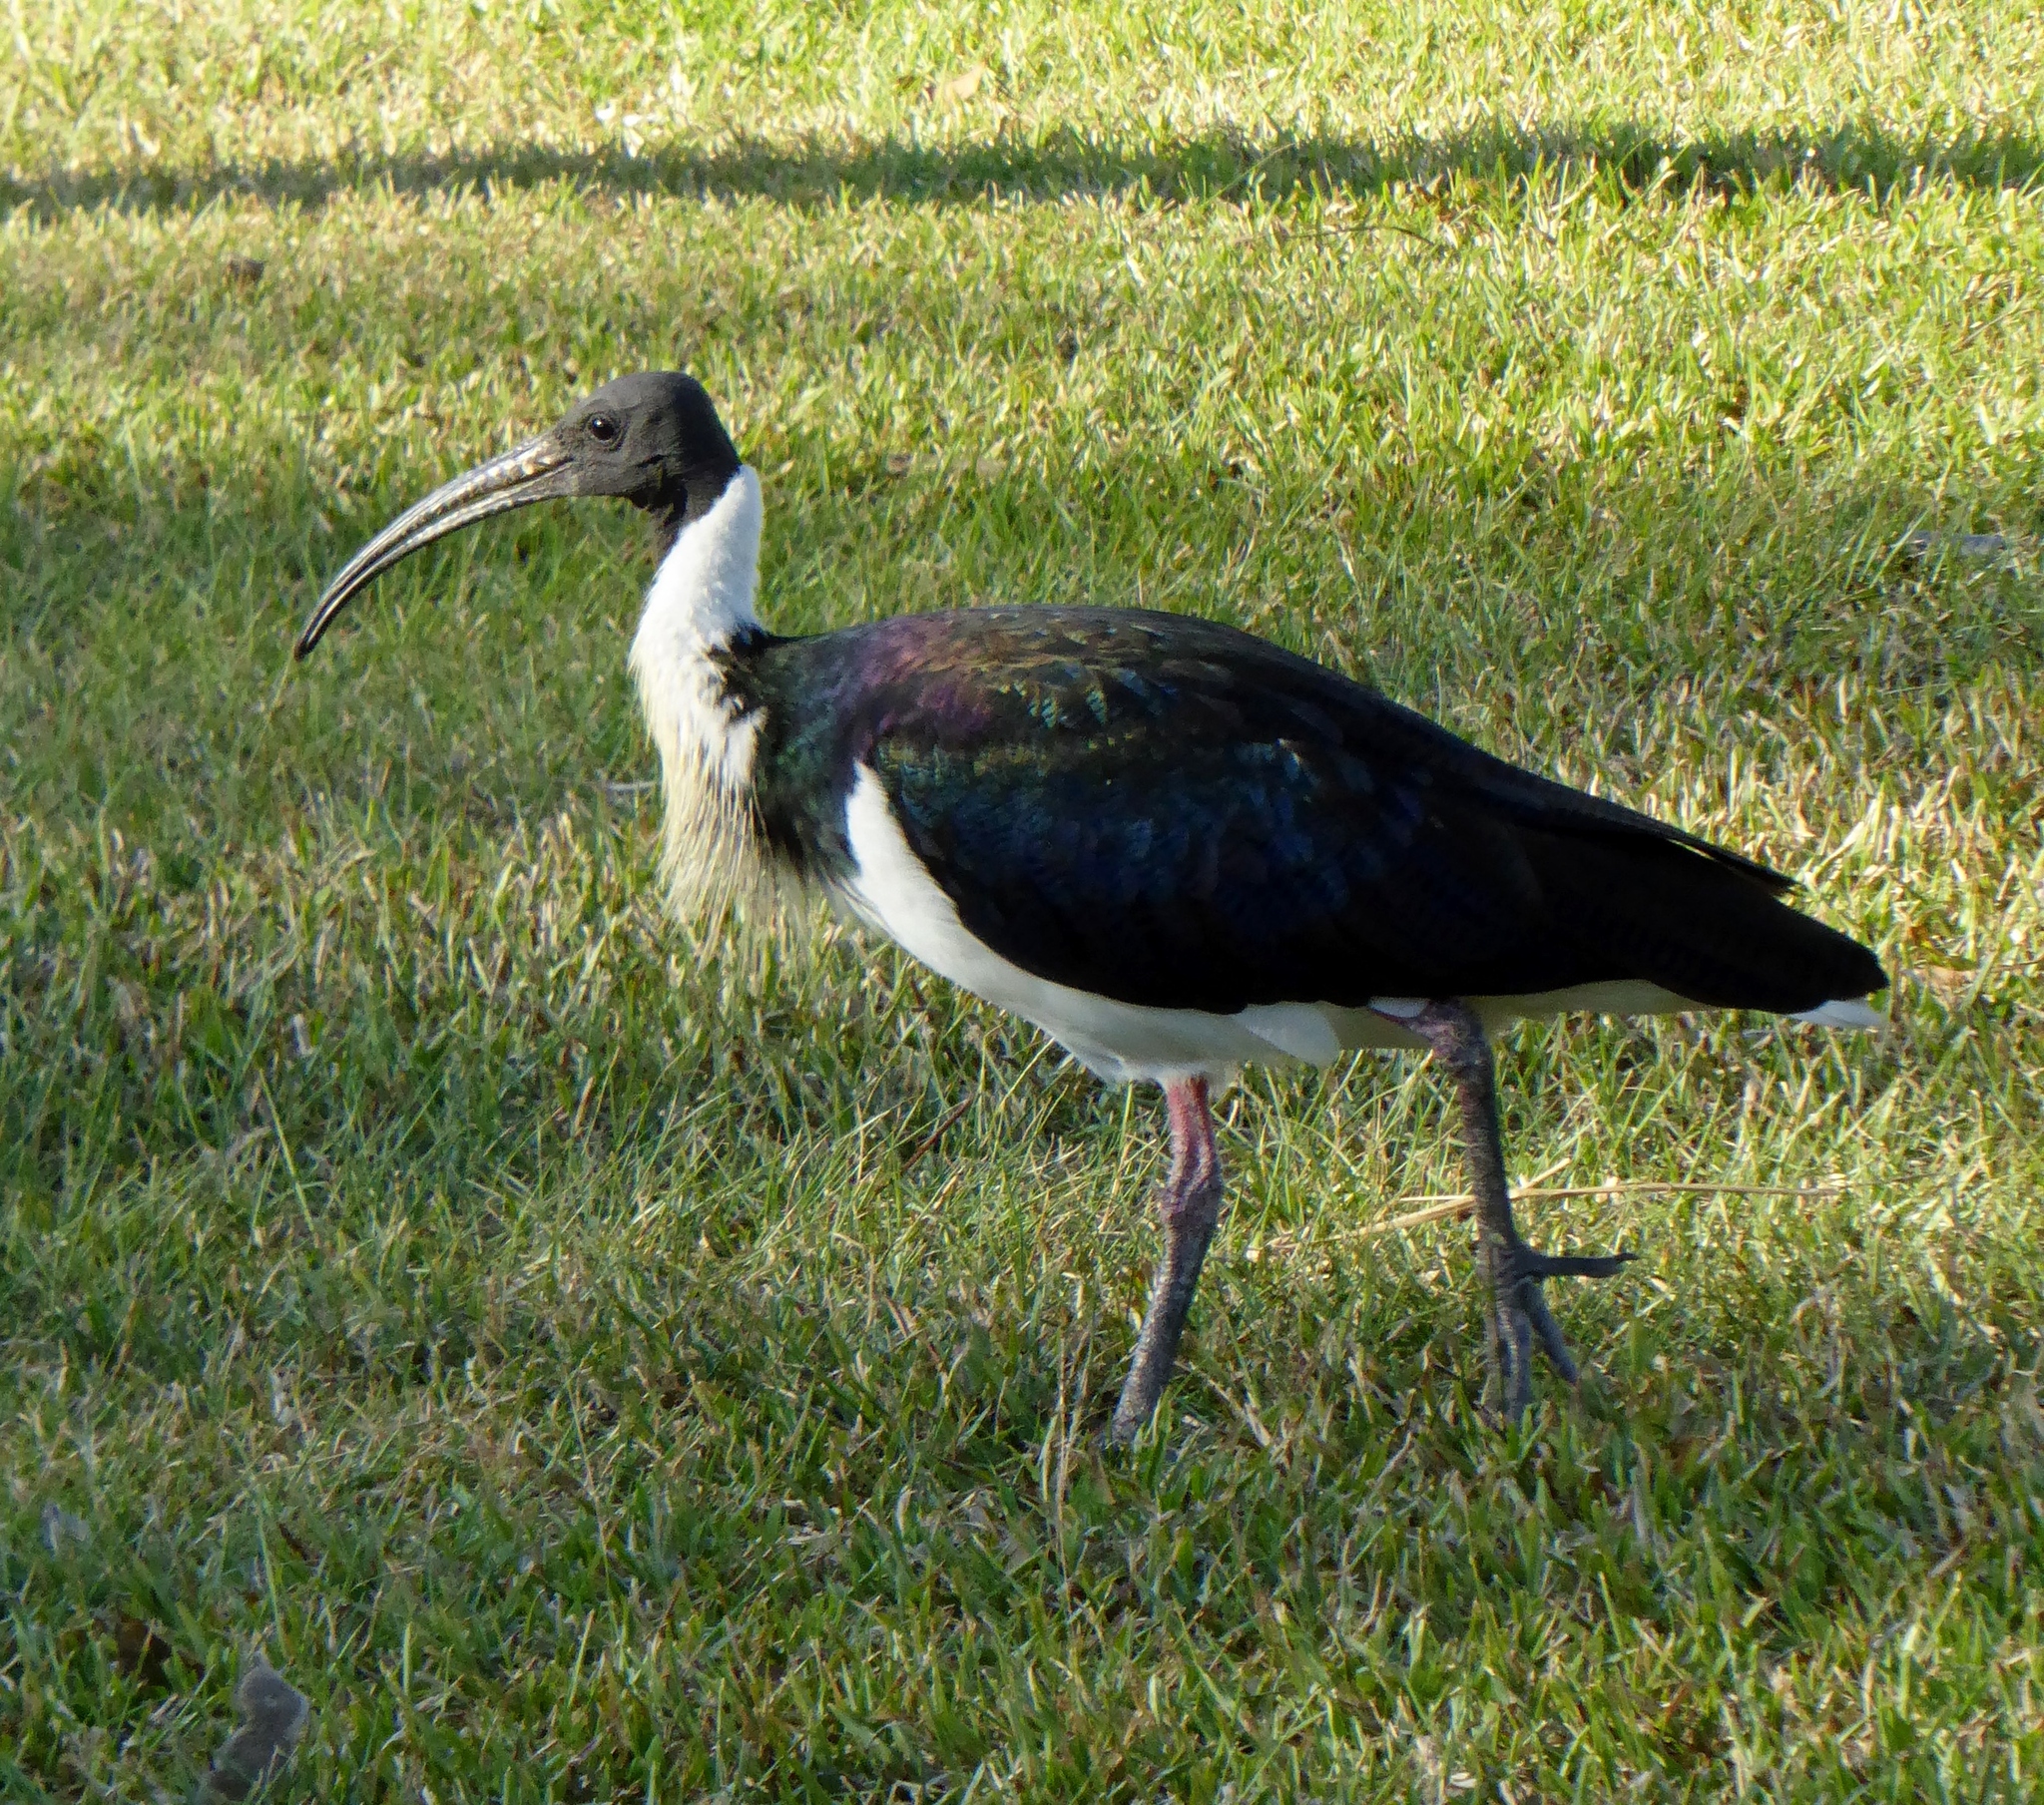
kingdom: Animalia
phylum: Chordata
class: Aves
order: Pelecaniformes
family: Threskiornithidae
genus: Threskiornis
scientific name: Threskiornis spinicollis
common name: Straw-necked ibis
